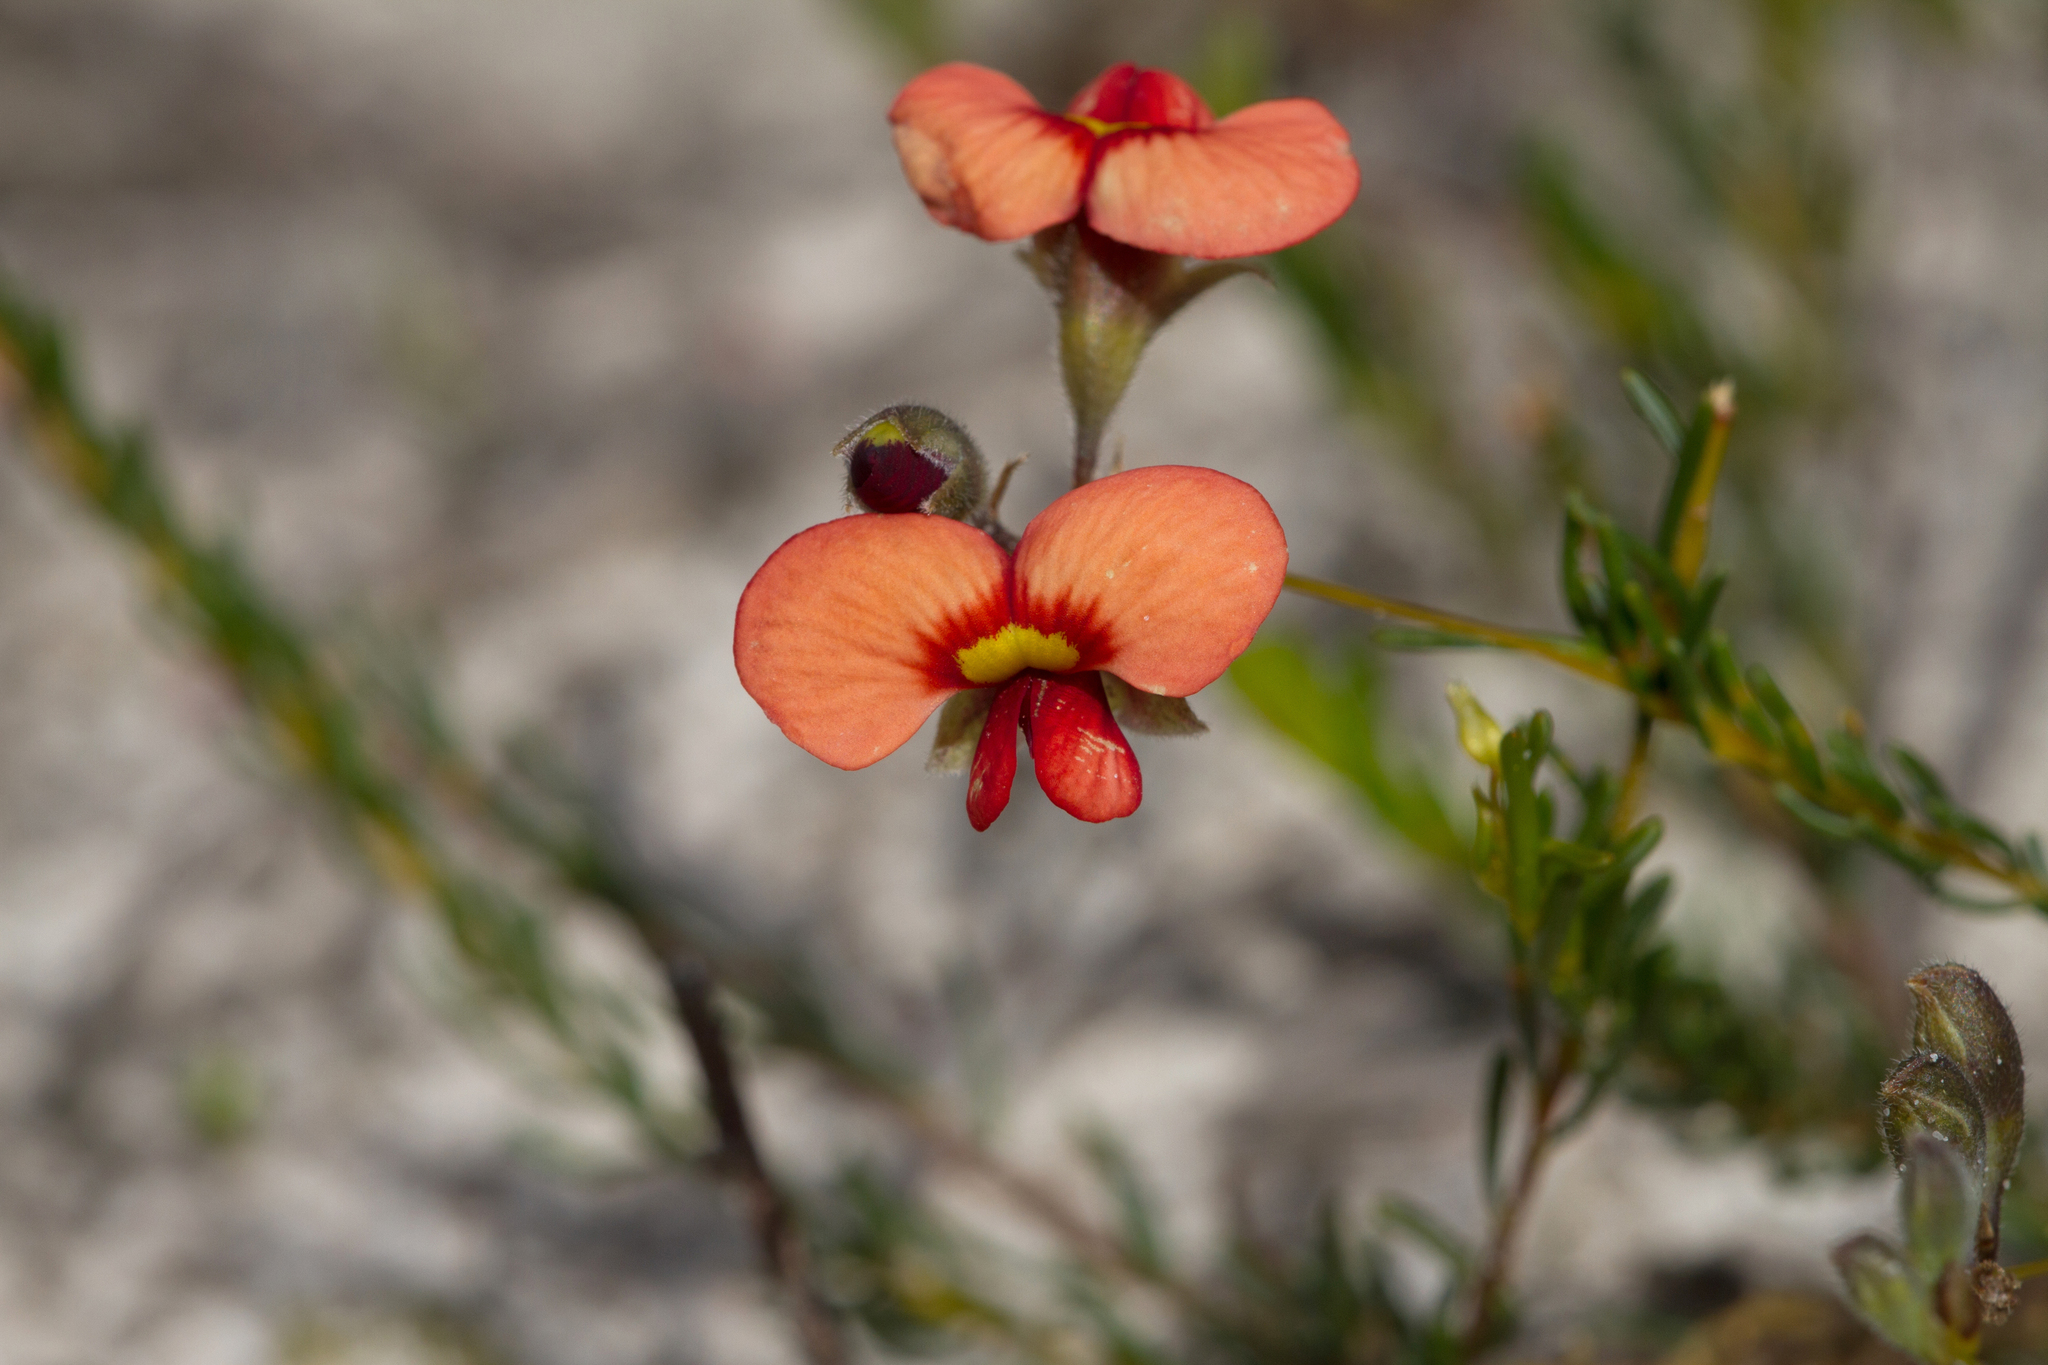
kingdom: Plantae
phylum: Tracheophyta
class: Magnoliopsida
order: Fabales
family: Fabaceae
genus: Dillwynia
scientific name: Dillwynia hispida
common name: Red parrot-pea
